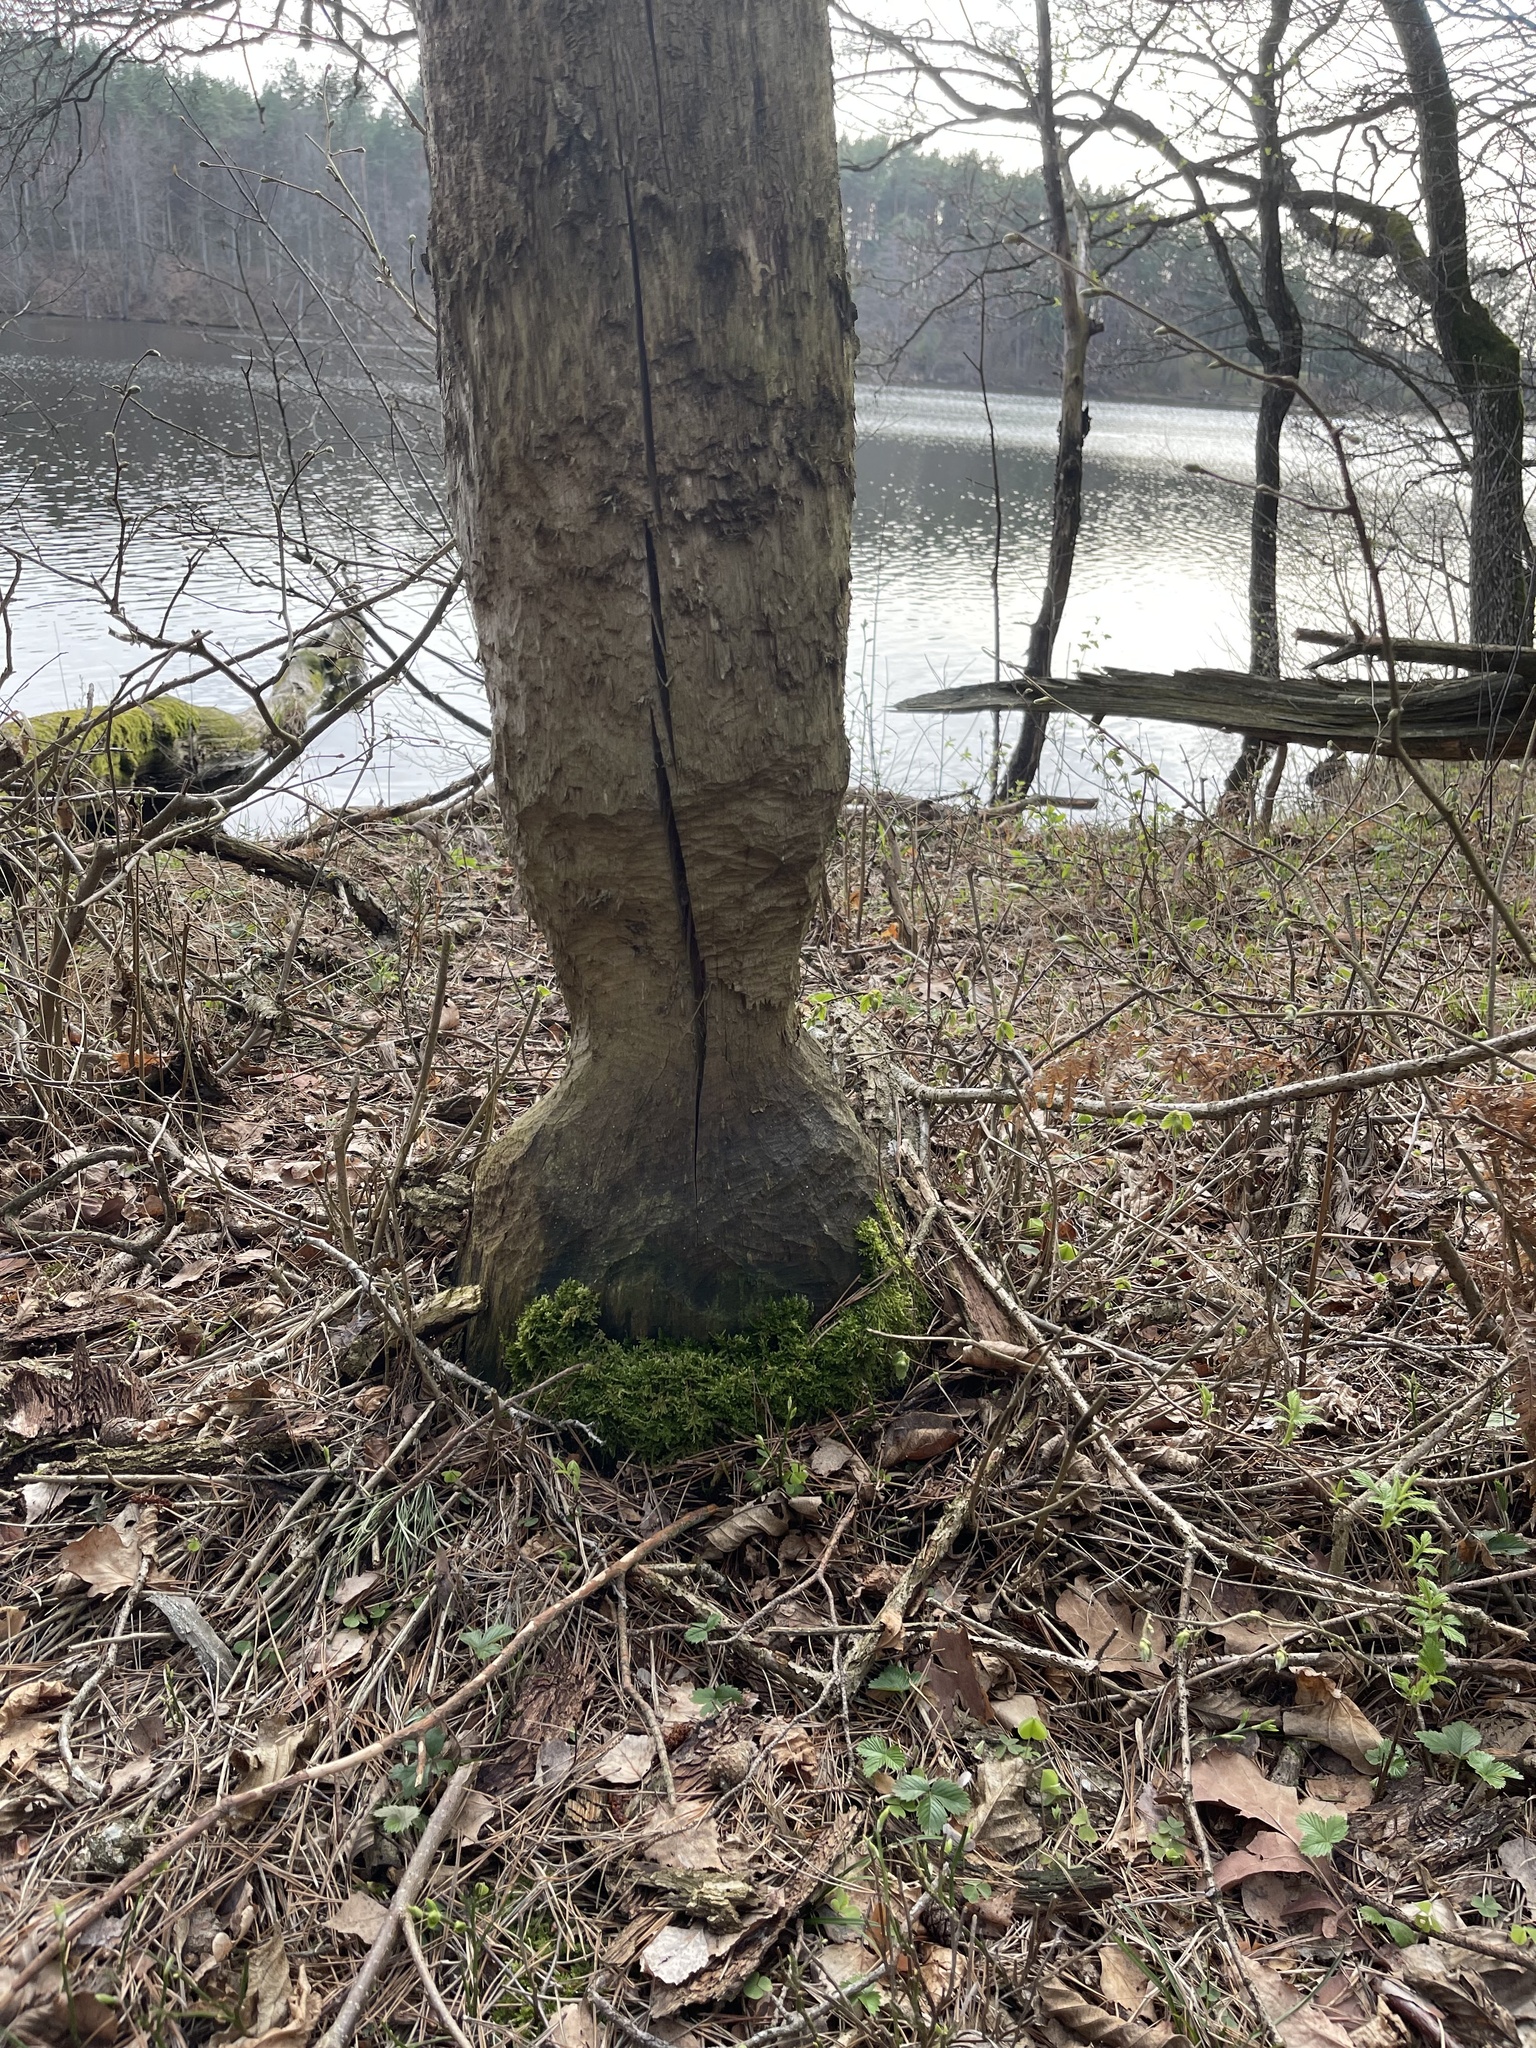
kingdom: Animalia
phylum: Chordata
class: Mammalia
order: Rodentia
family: Castoridae
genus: Castor
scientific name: Castor fiber
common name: Eurasian beaver
